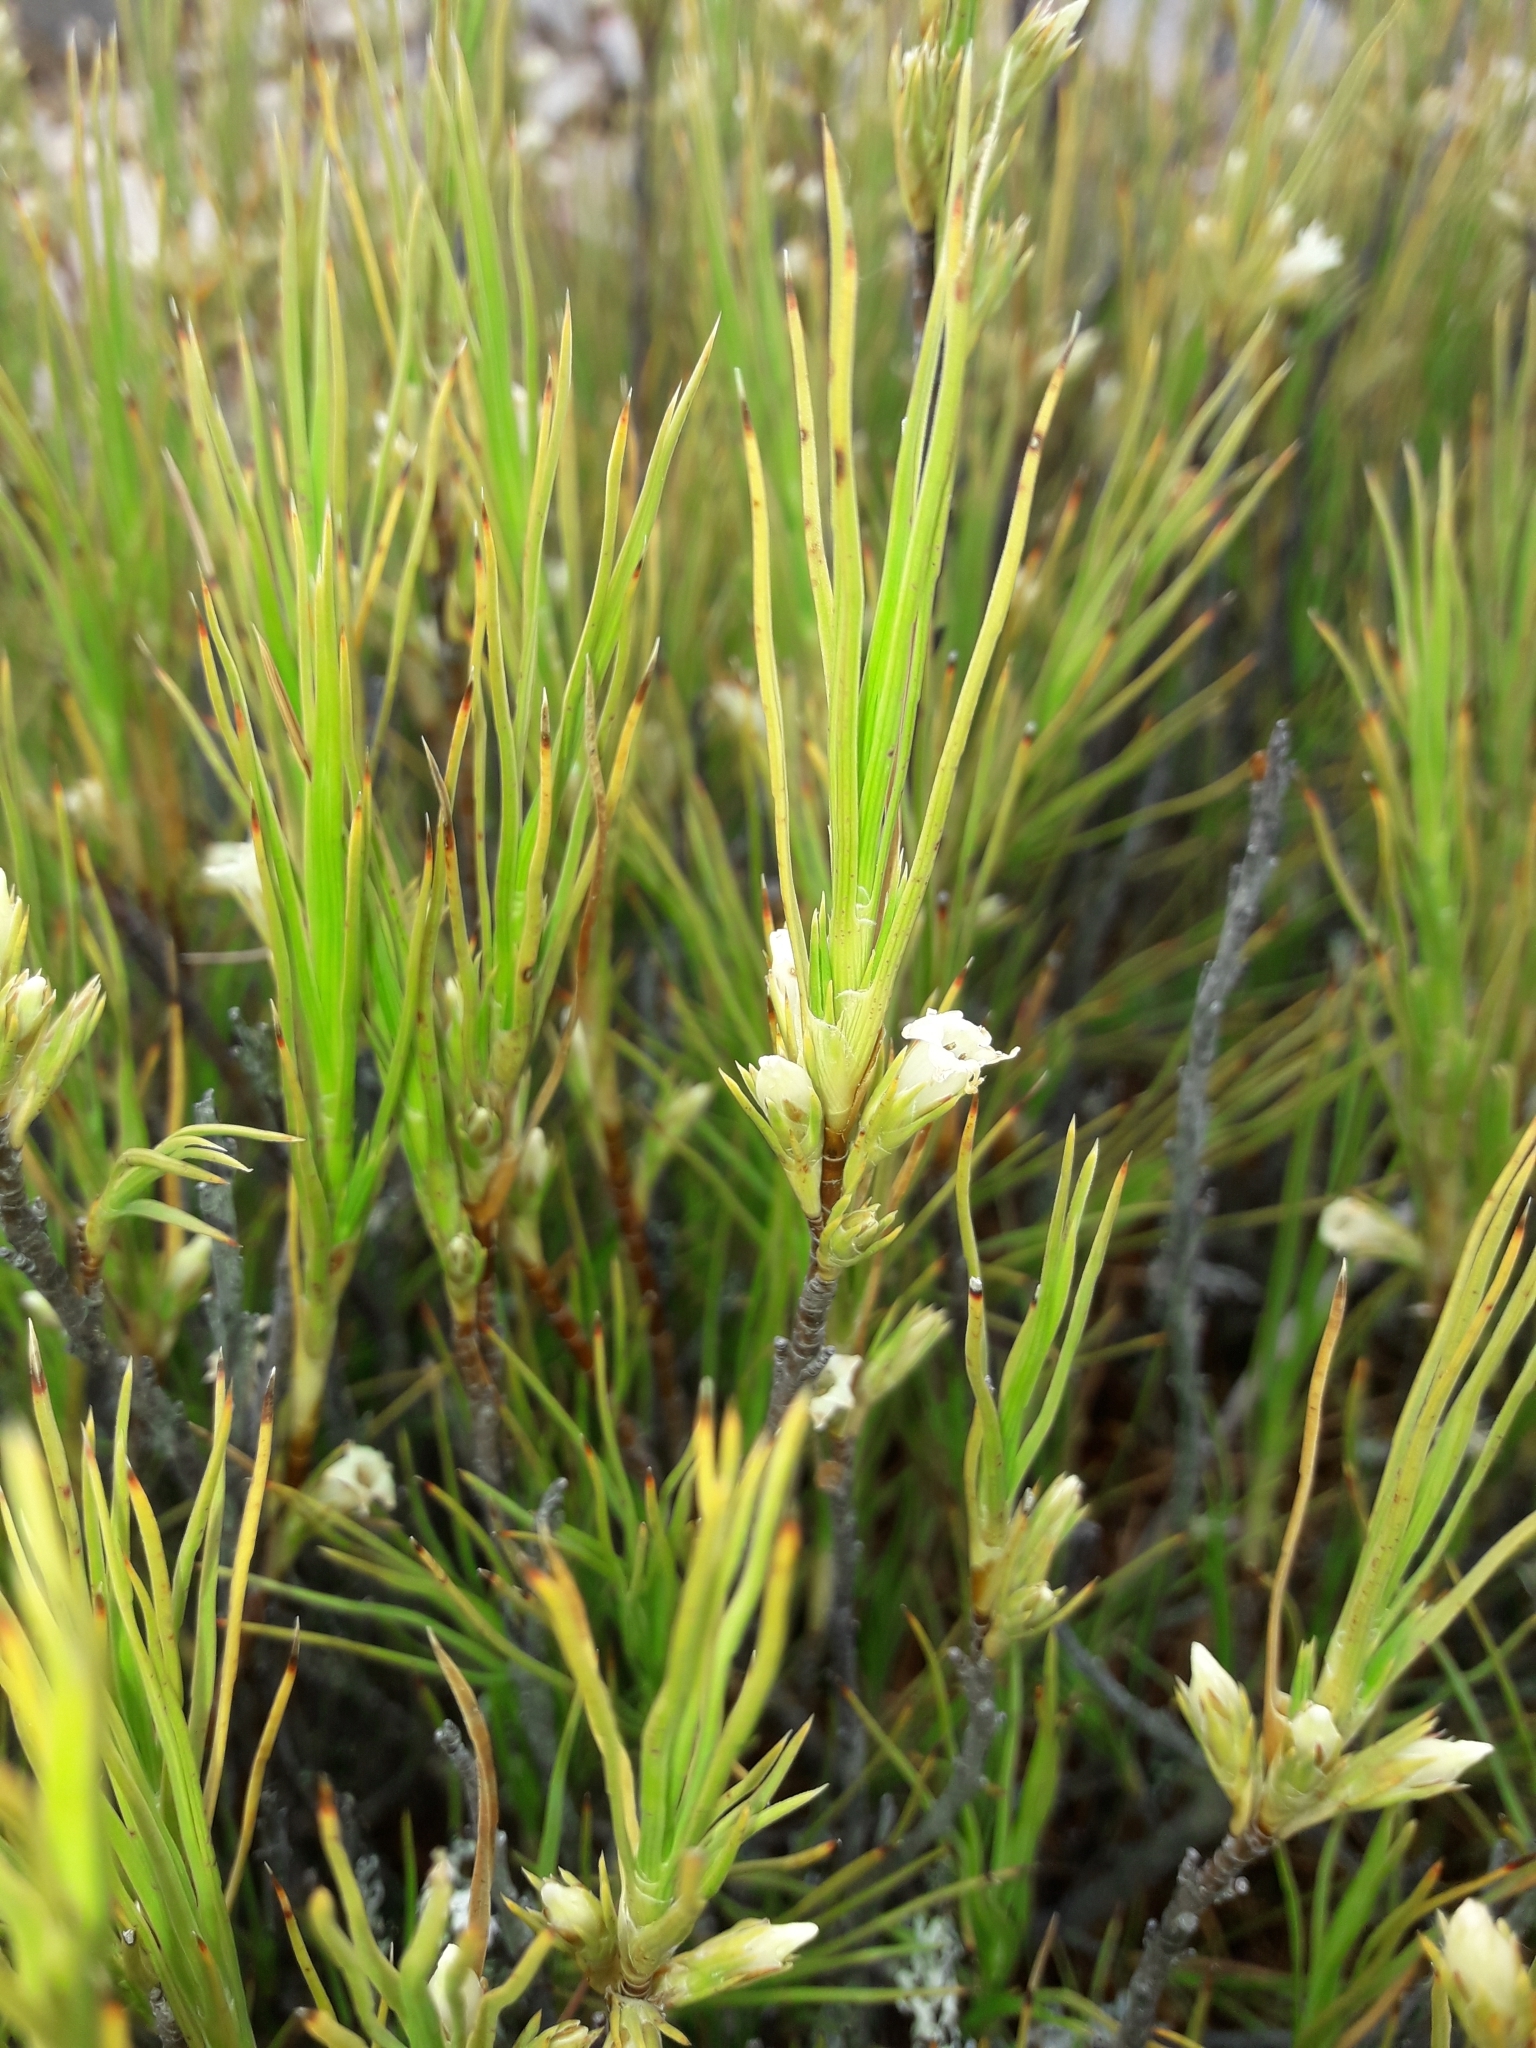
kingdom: Plantae
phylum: Tracheophyta
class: Magnoliopsida
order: Ericales
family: Ericaceae
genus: Dracophyllum
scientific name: Dracophyllum rosmarinifolium
